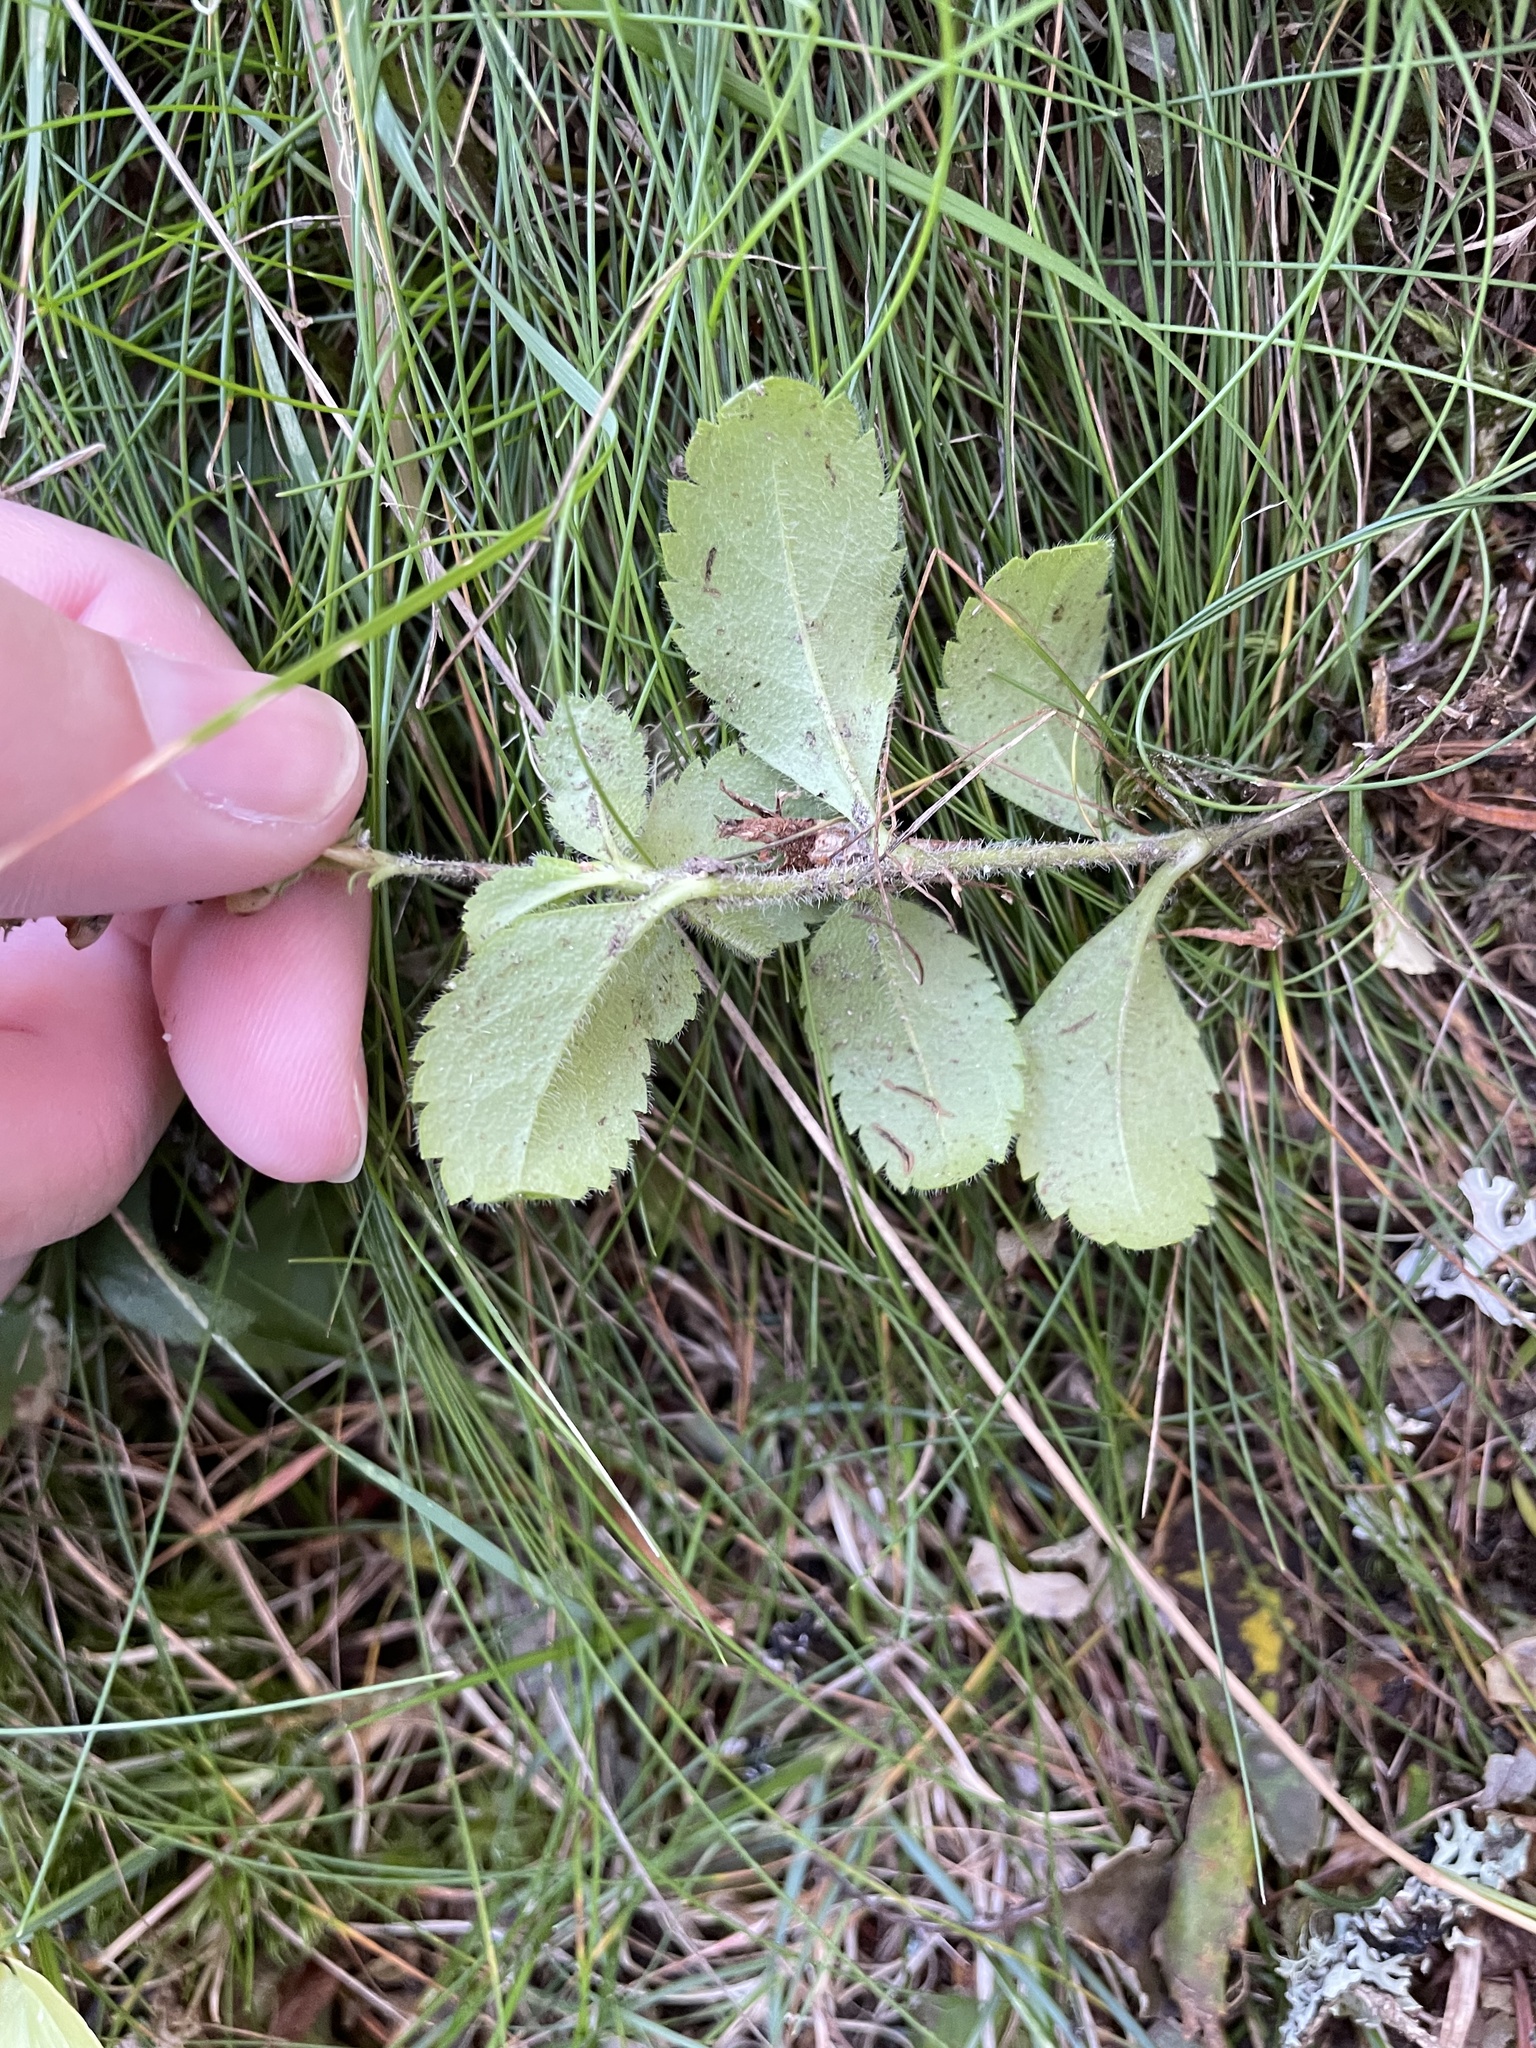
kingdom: Plantae
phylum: Tracheophyta
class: Magnoliopsida
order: Lamiales
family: Plantaginaceae
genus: Veronica
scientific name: Veronica officinalis
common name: Common speedwell
